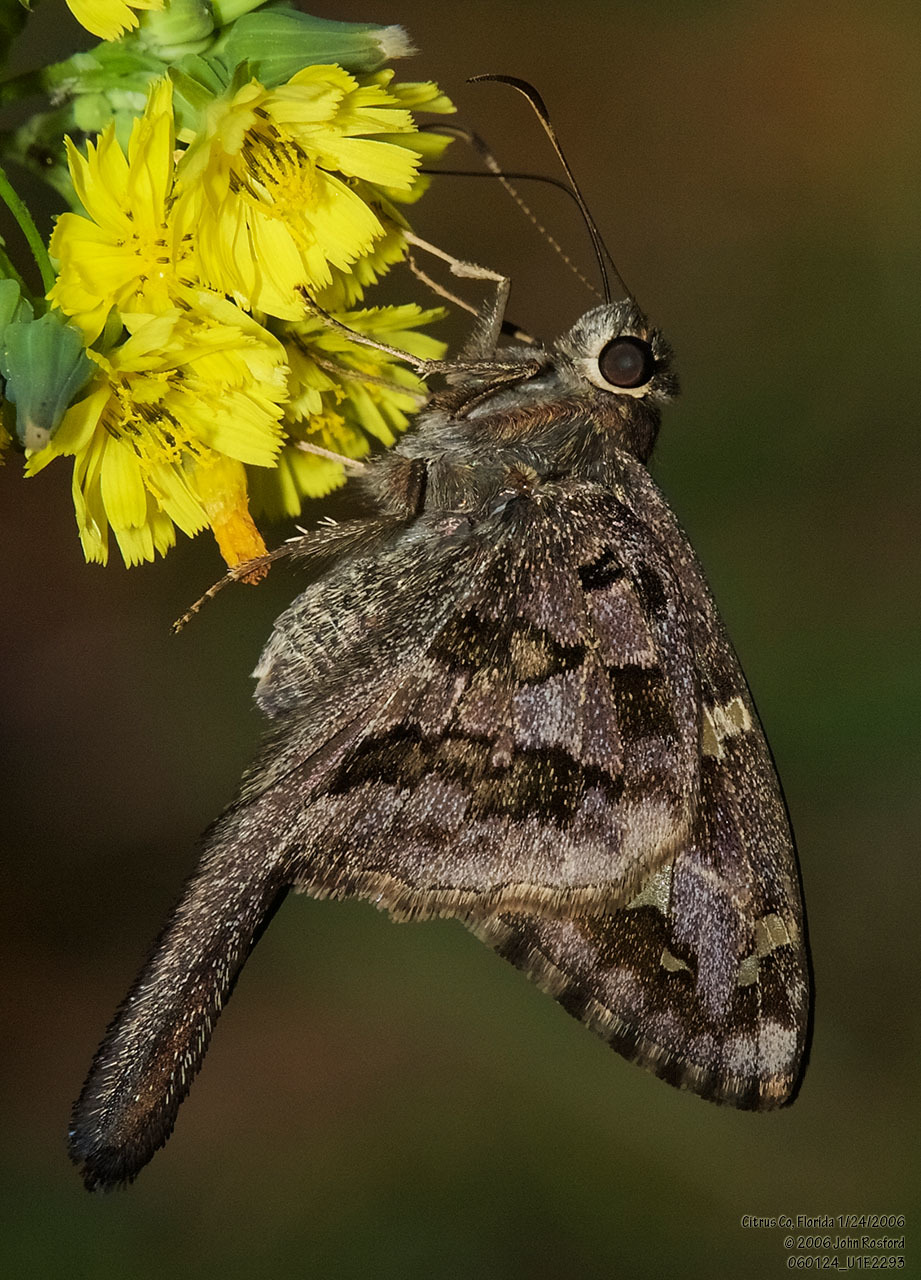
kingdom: Animalia
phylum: Arthropoda
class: Insecta
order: Lepidoptera
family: Hesperiidae
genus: Thorybes
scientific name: Thorybes
